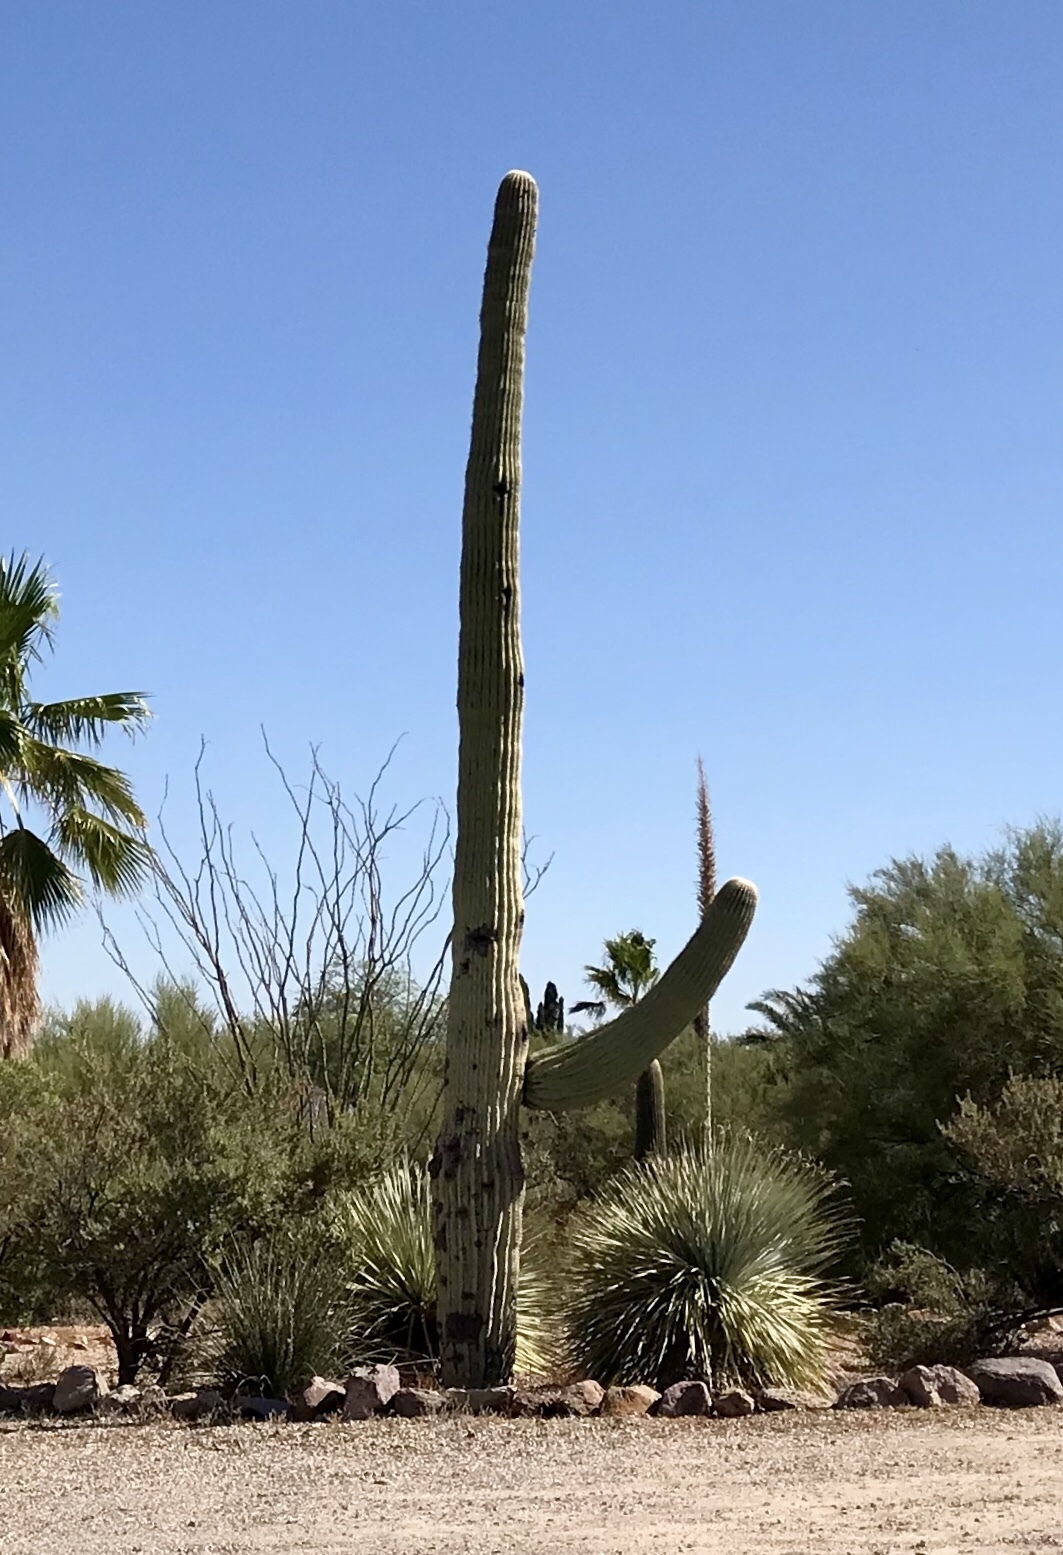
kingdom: Plantae
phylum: Tracheophyta
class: Magnoliopsida
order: Caryophyllales
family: Cactaceae
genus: Carnegiea
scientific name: Carnegiea gigantea
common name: Saguaro
